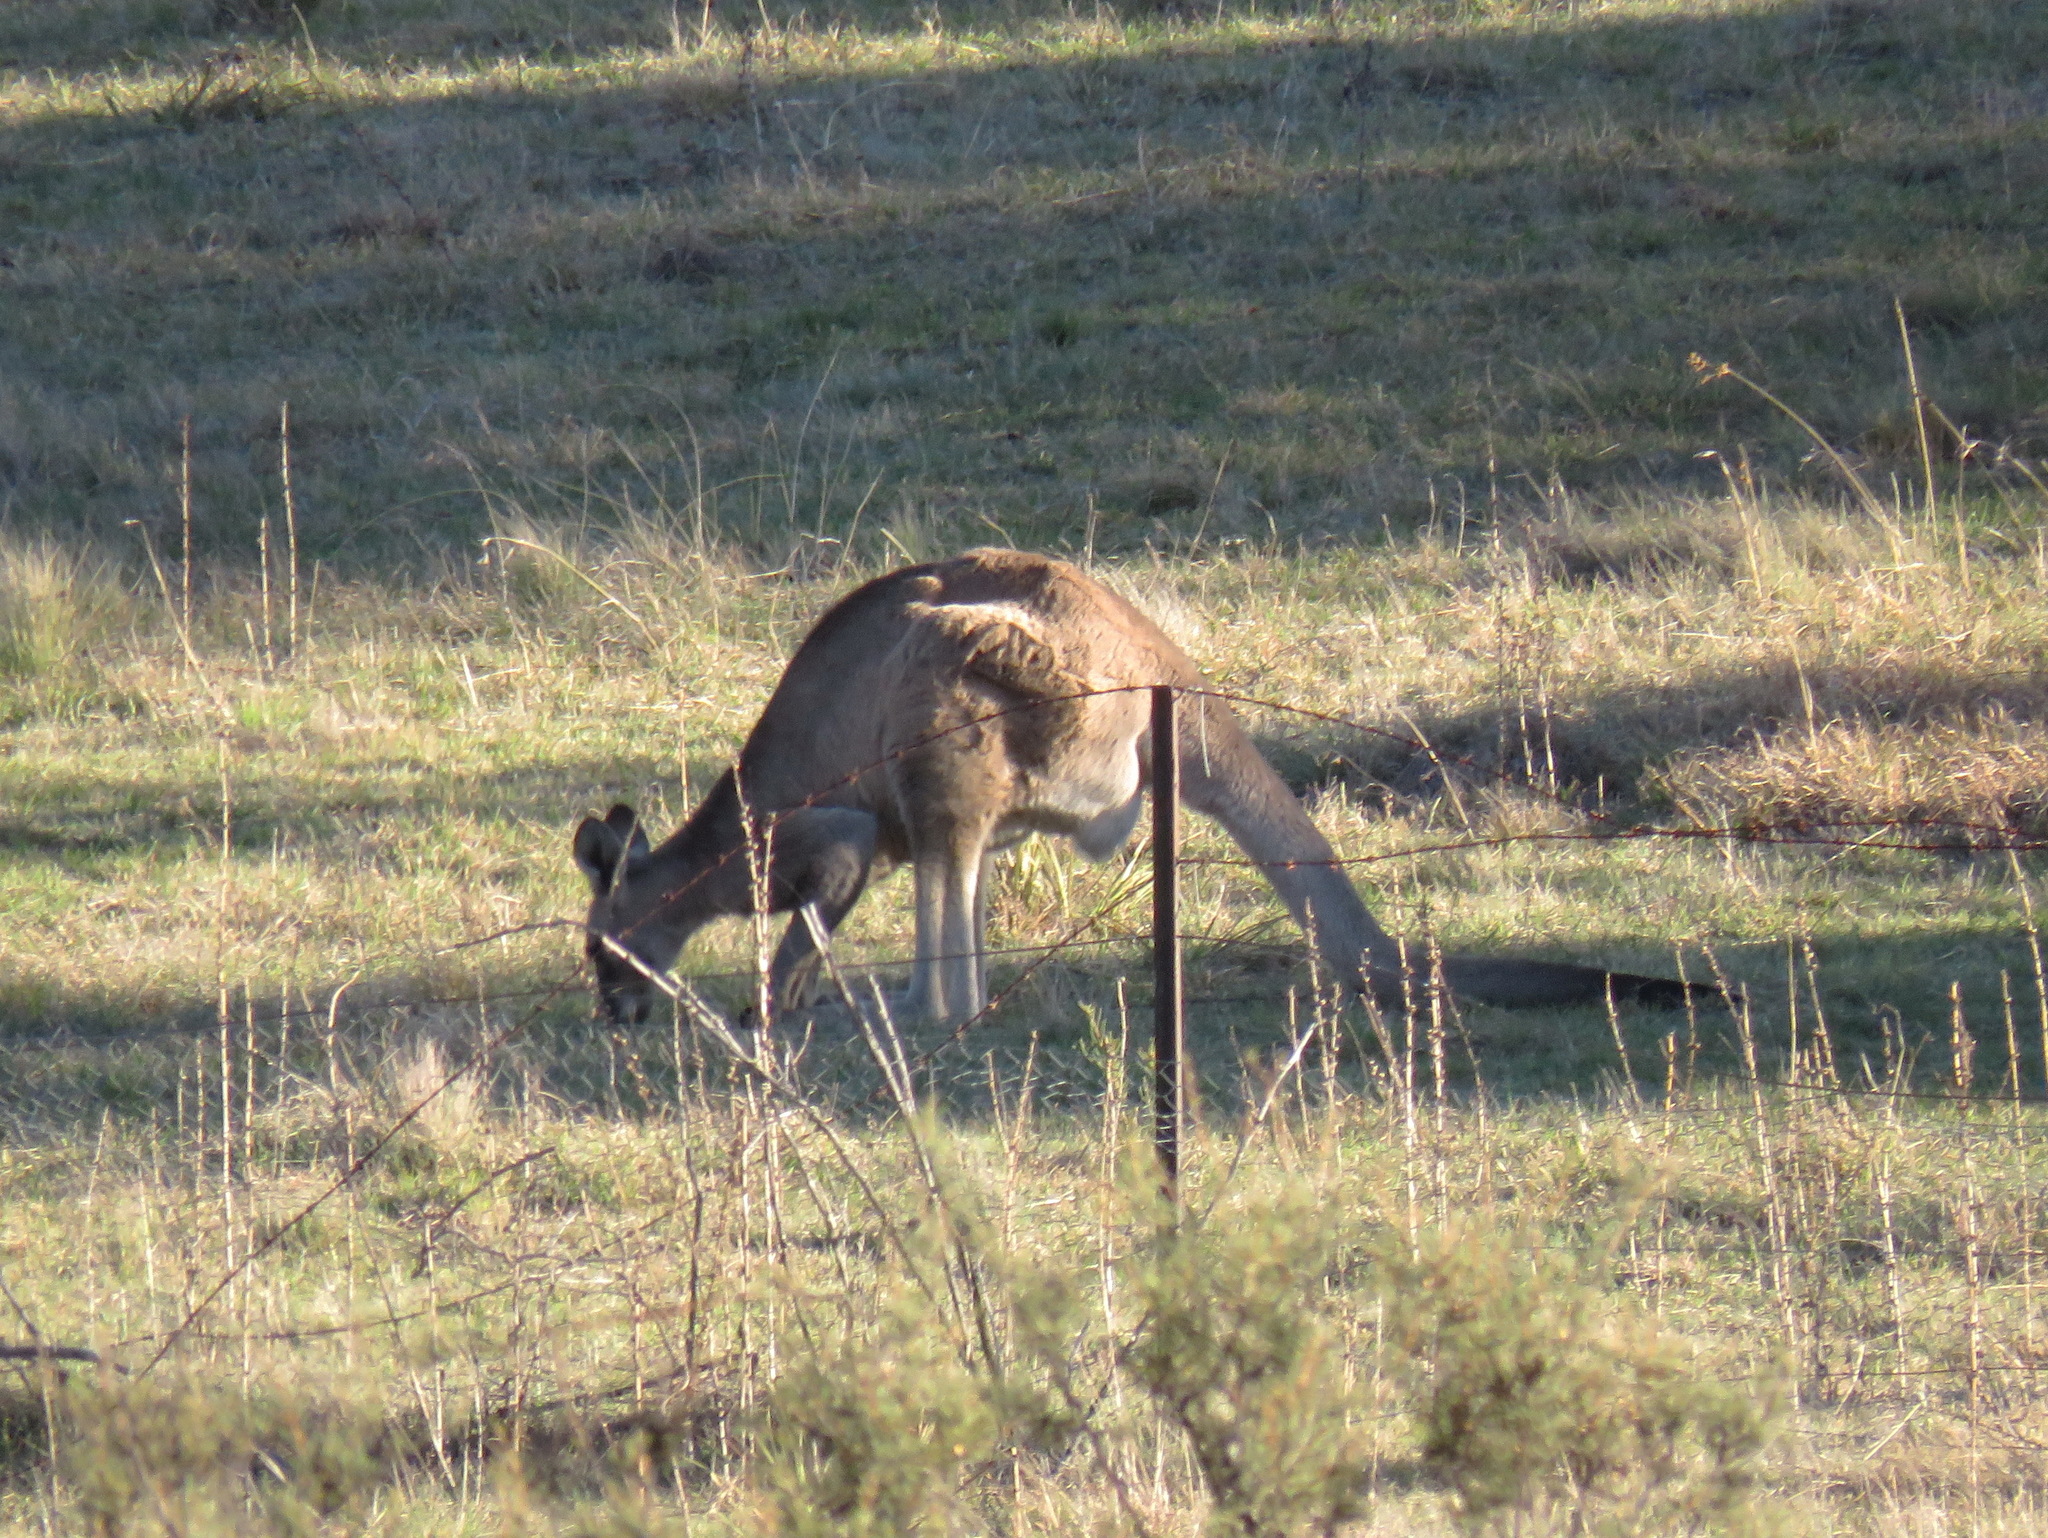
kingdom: Animalia
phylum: Chordata
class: Mammalia
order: Diprotodontia
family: Macropodidae
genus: Macropus
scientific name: Macropus giganteus
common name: Eastern grey kangaroo
